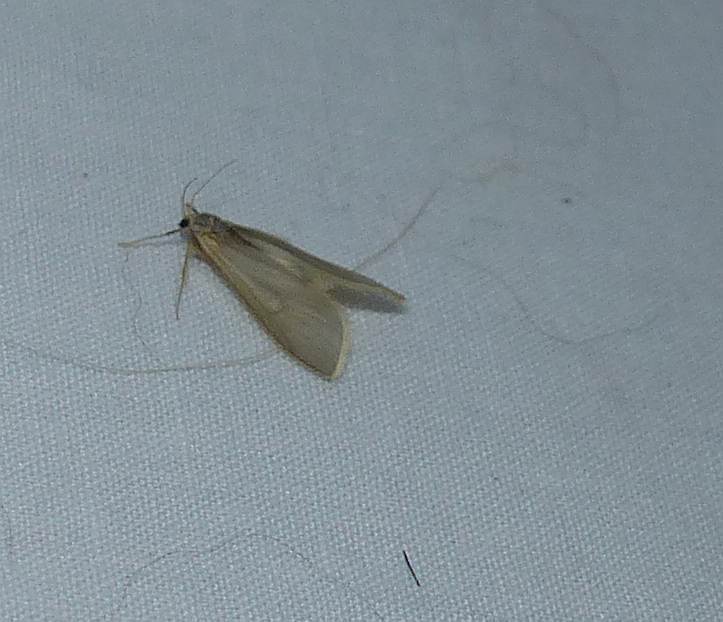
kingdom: Animalia
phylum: Arthropoda
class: Insecta
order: Lepidoptera
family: Crambidae
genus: Acentria
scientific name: Acentria ephemerella
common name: European water moth
